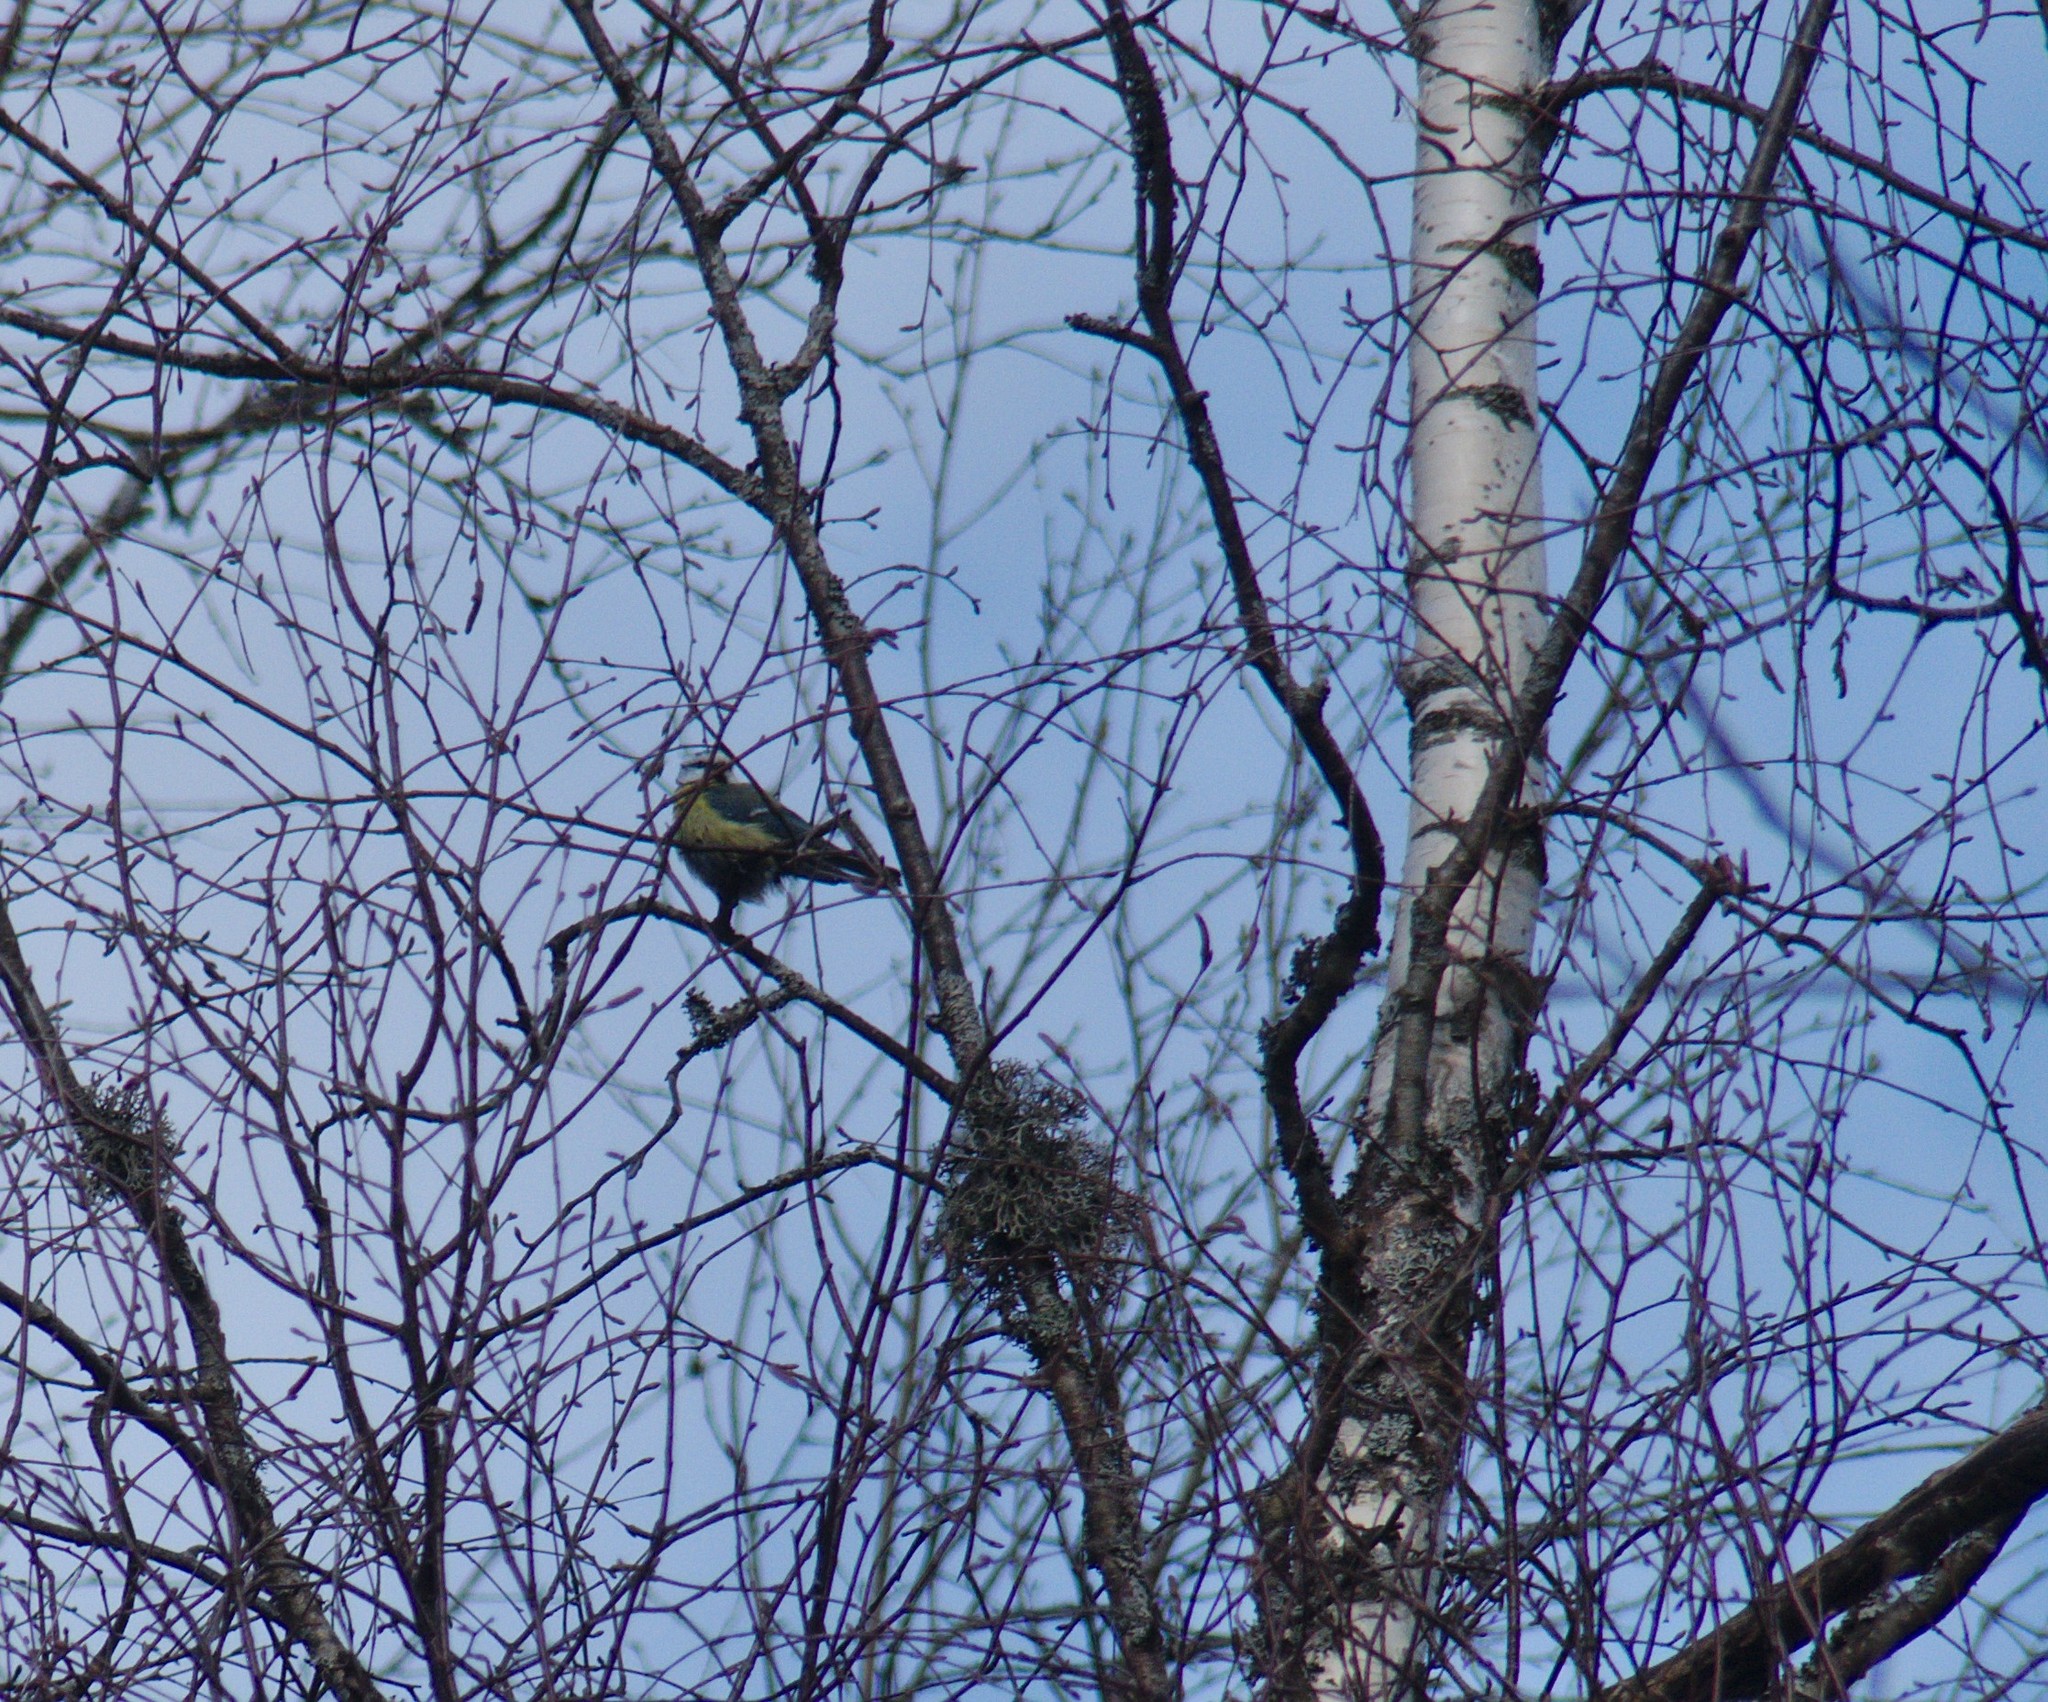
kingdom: Animalia
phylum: Chordata
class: Aves
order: Passeriformes
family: Paridae
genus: Cyanistes
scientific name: Cyanistes caeruleus
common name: Eurasian blue tit
